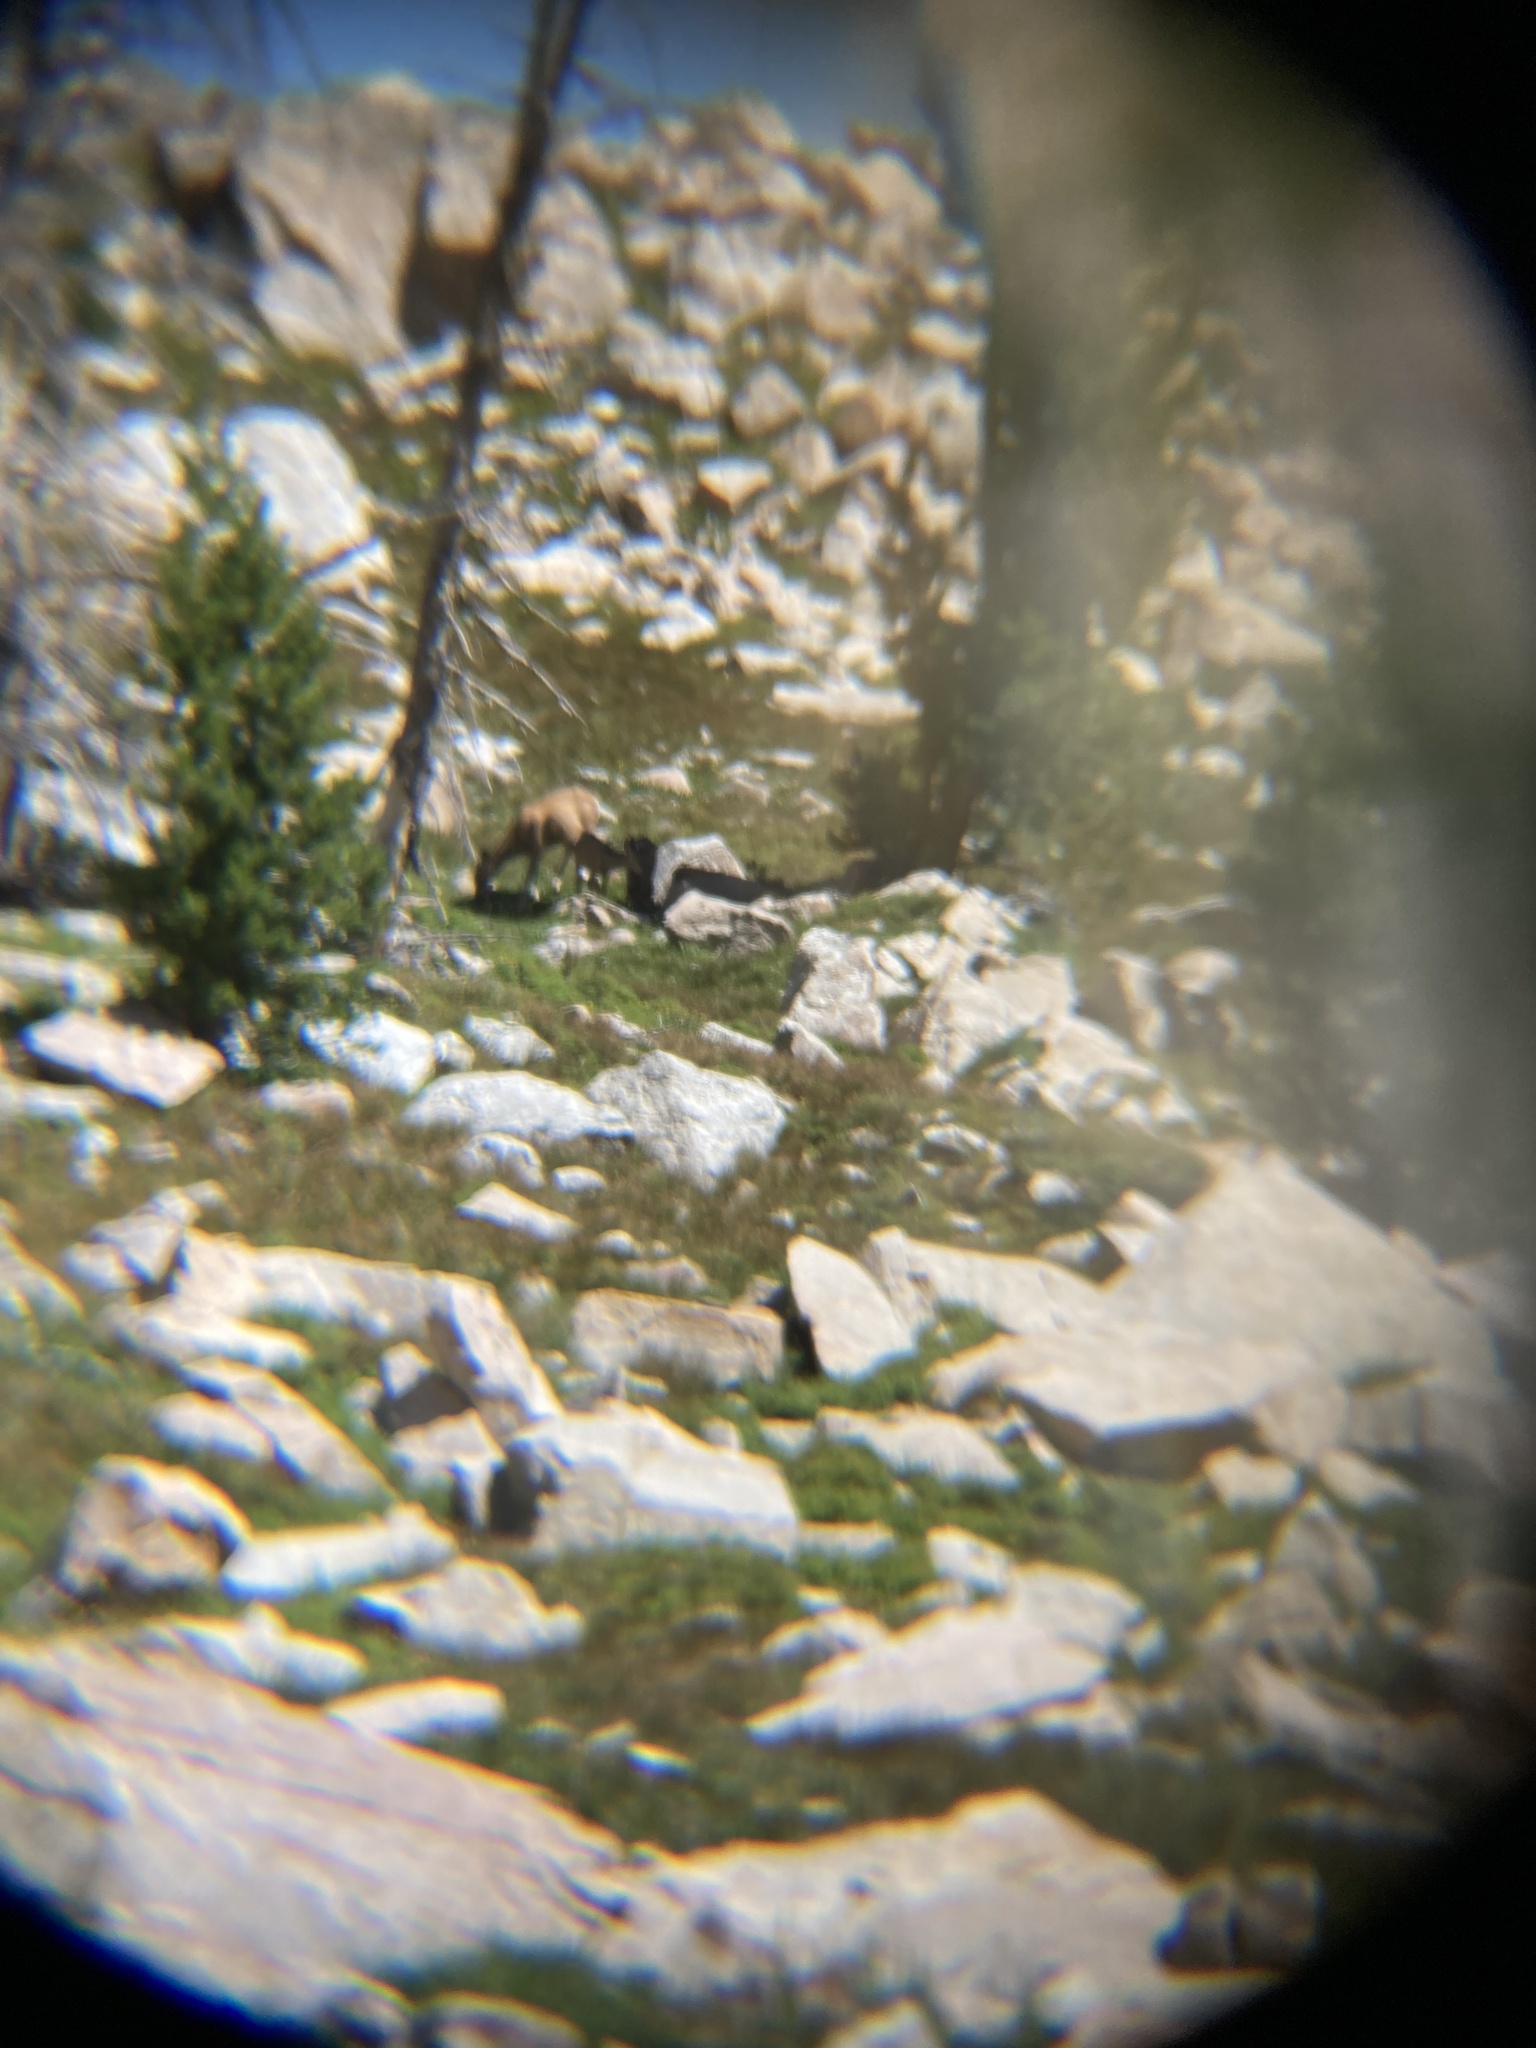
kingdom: Animalia
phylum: Chordata
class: Mammalia
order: Artiodactyla
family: Cervidae
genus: Odocoileus
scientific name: Odocoileus hemionus
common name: Mule deer
